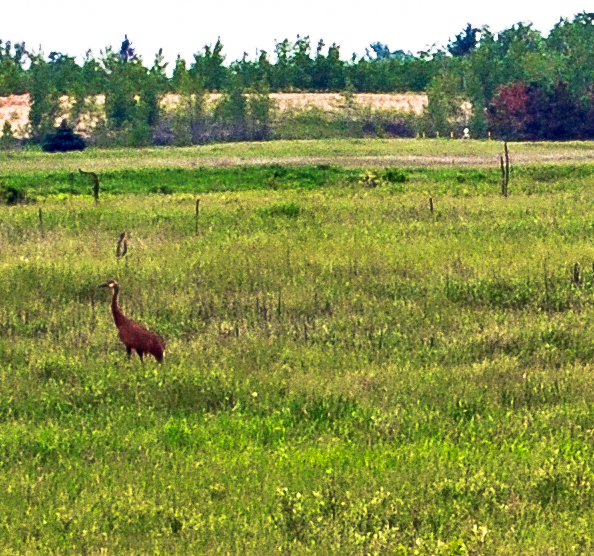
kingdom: Animalia
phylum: Chordata
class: Aves
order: Gruiformes
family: Gruidae
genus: Grus
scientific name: Grus canadensis
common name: Sandhill crane
